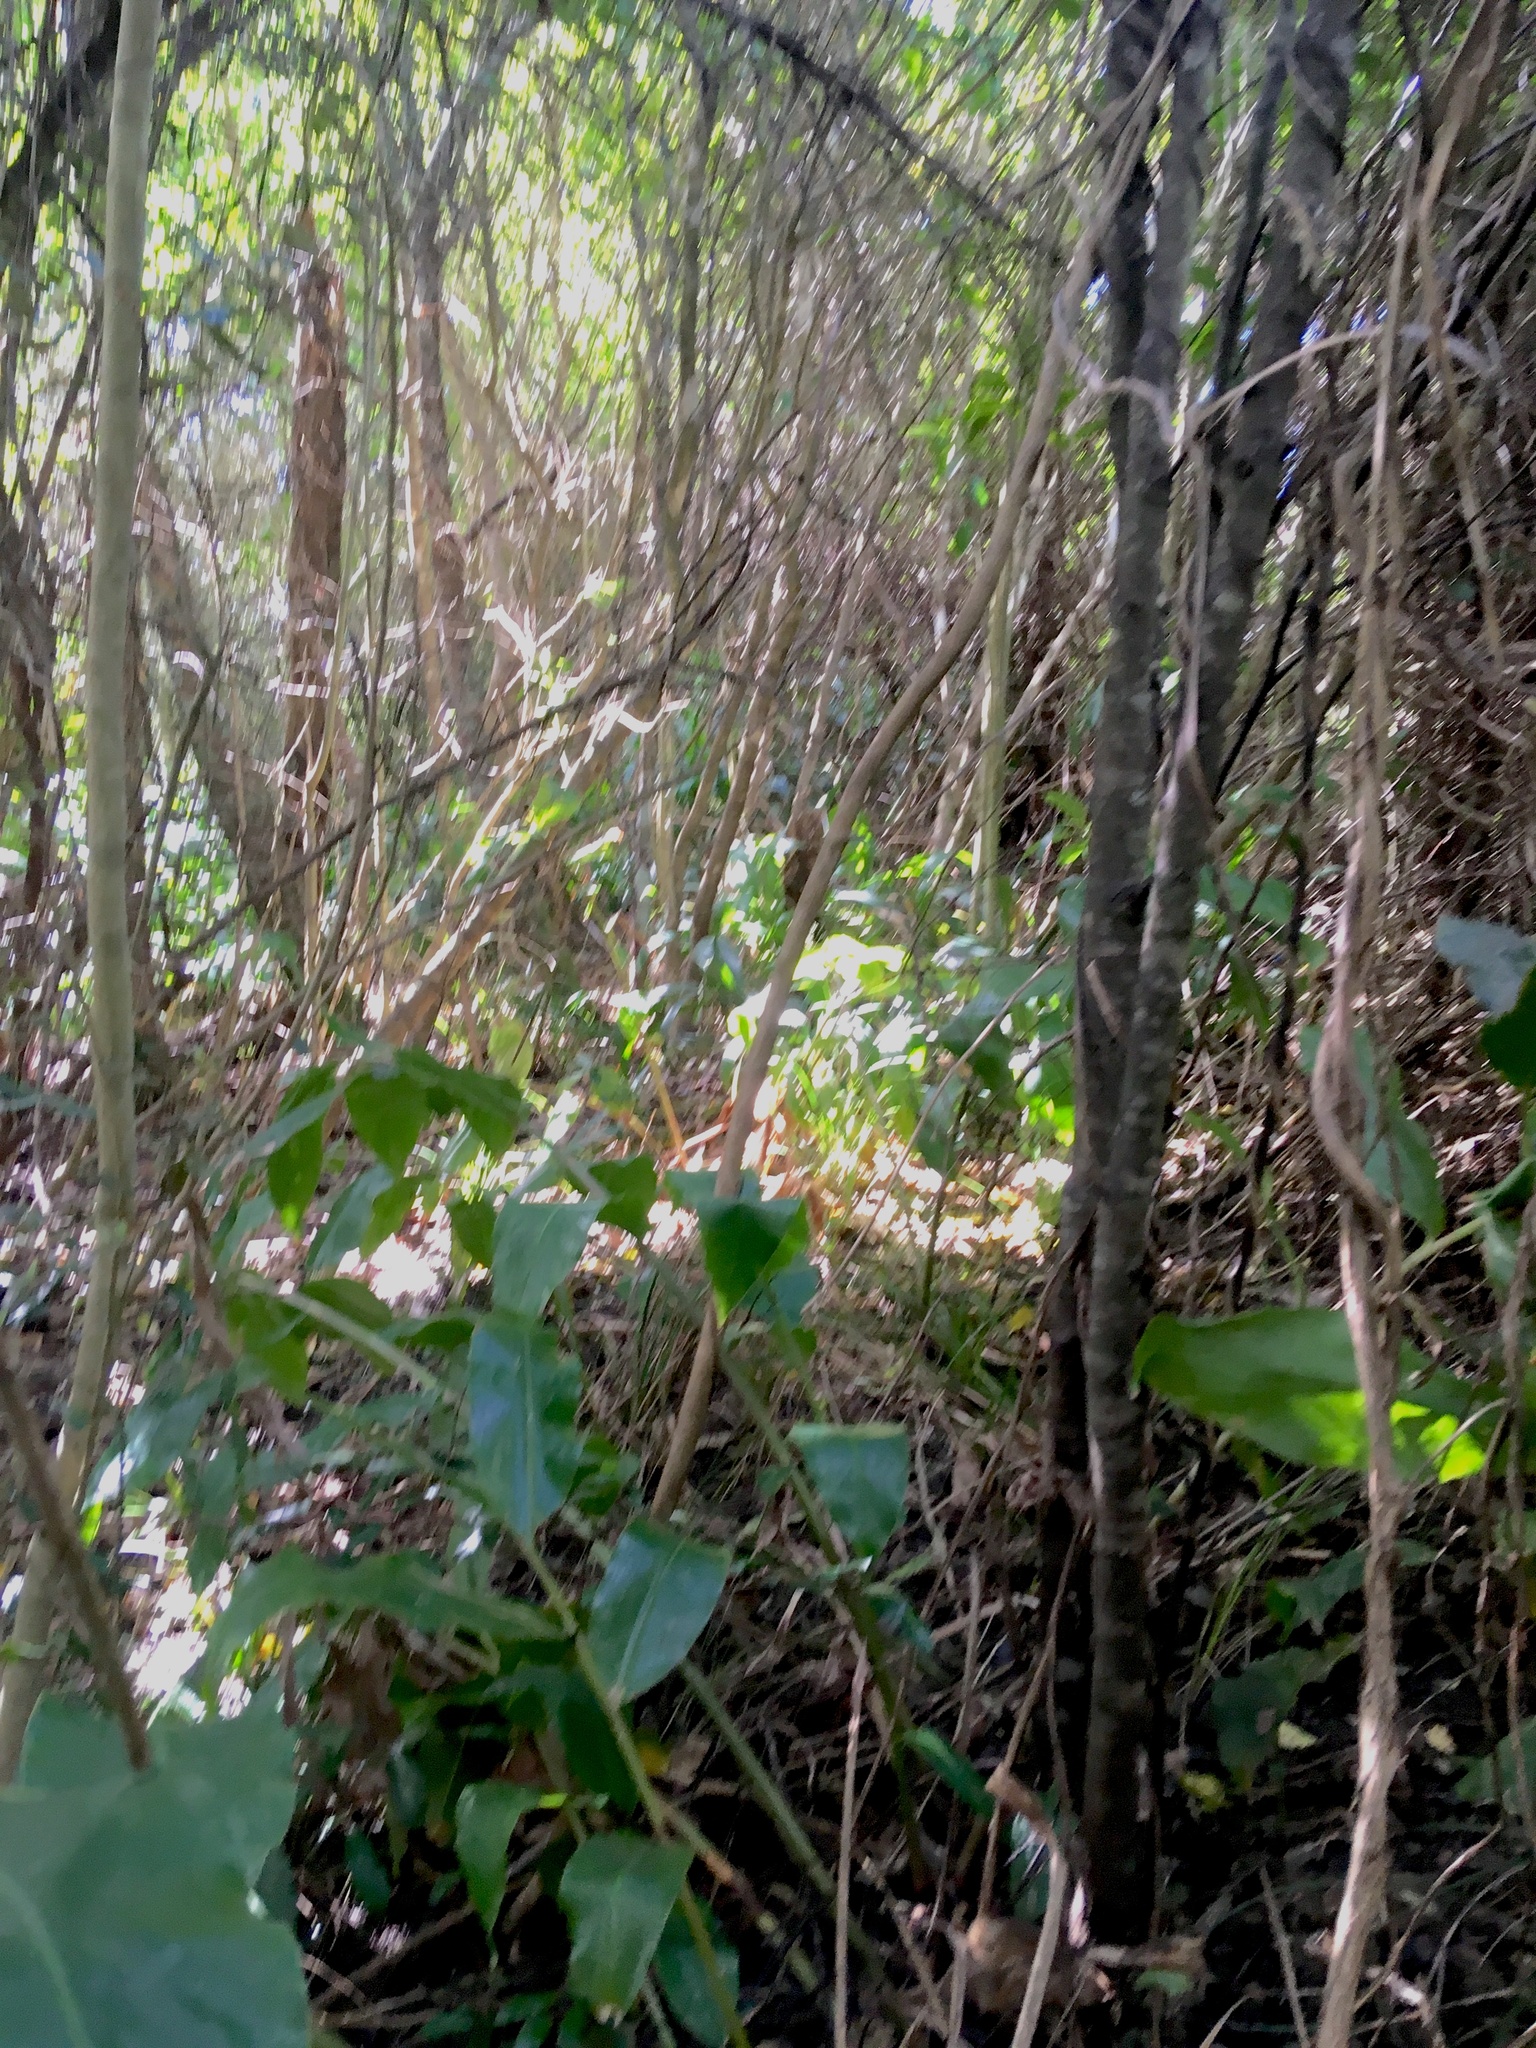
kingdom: Plantae
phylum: Tracheophyta
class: Liliopsida
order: Zingiberales
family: Zingiberaceae
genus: Hedychium
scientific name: Hedychium gardnerianum
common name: Himalayan ginger
